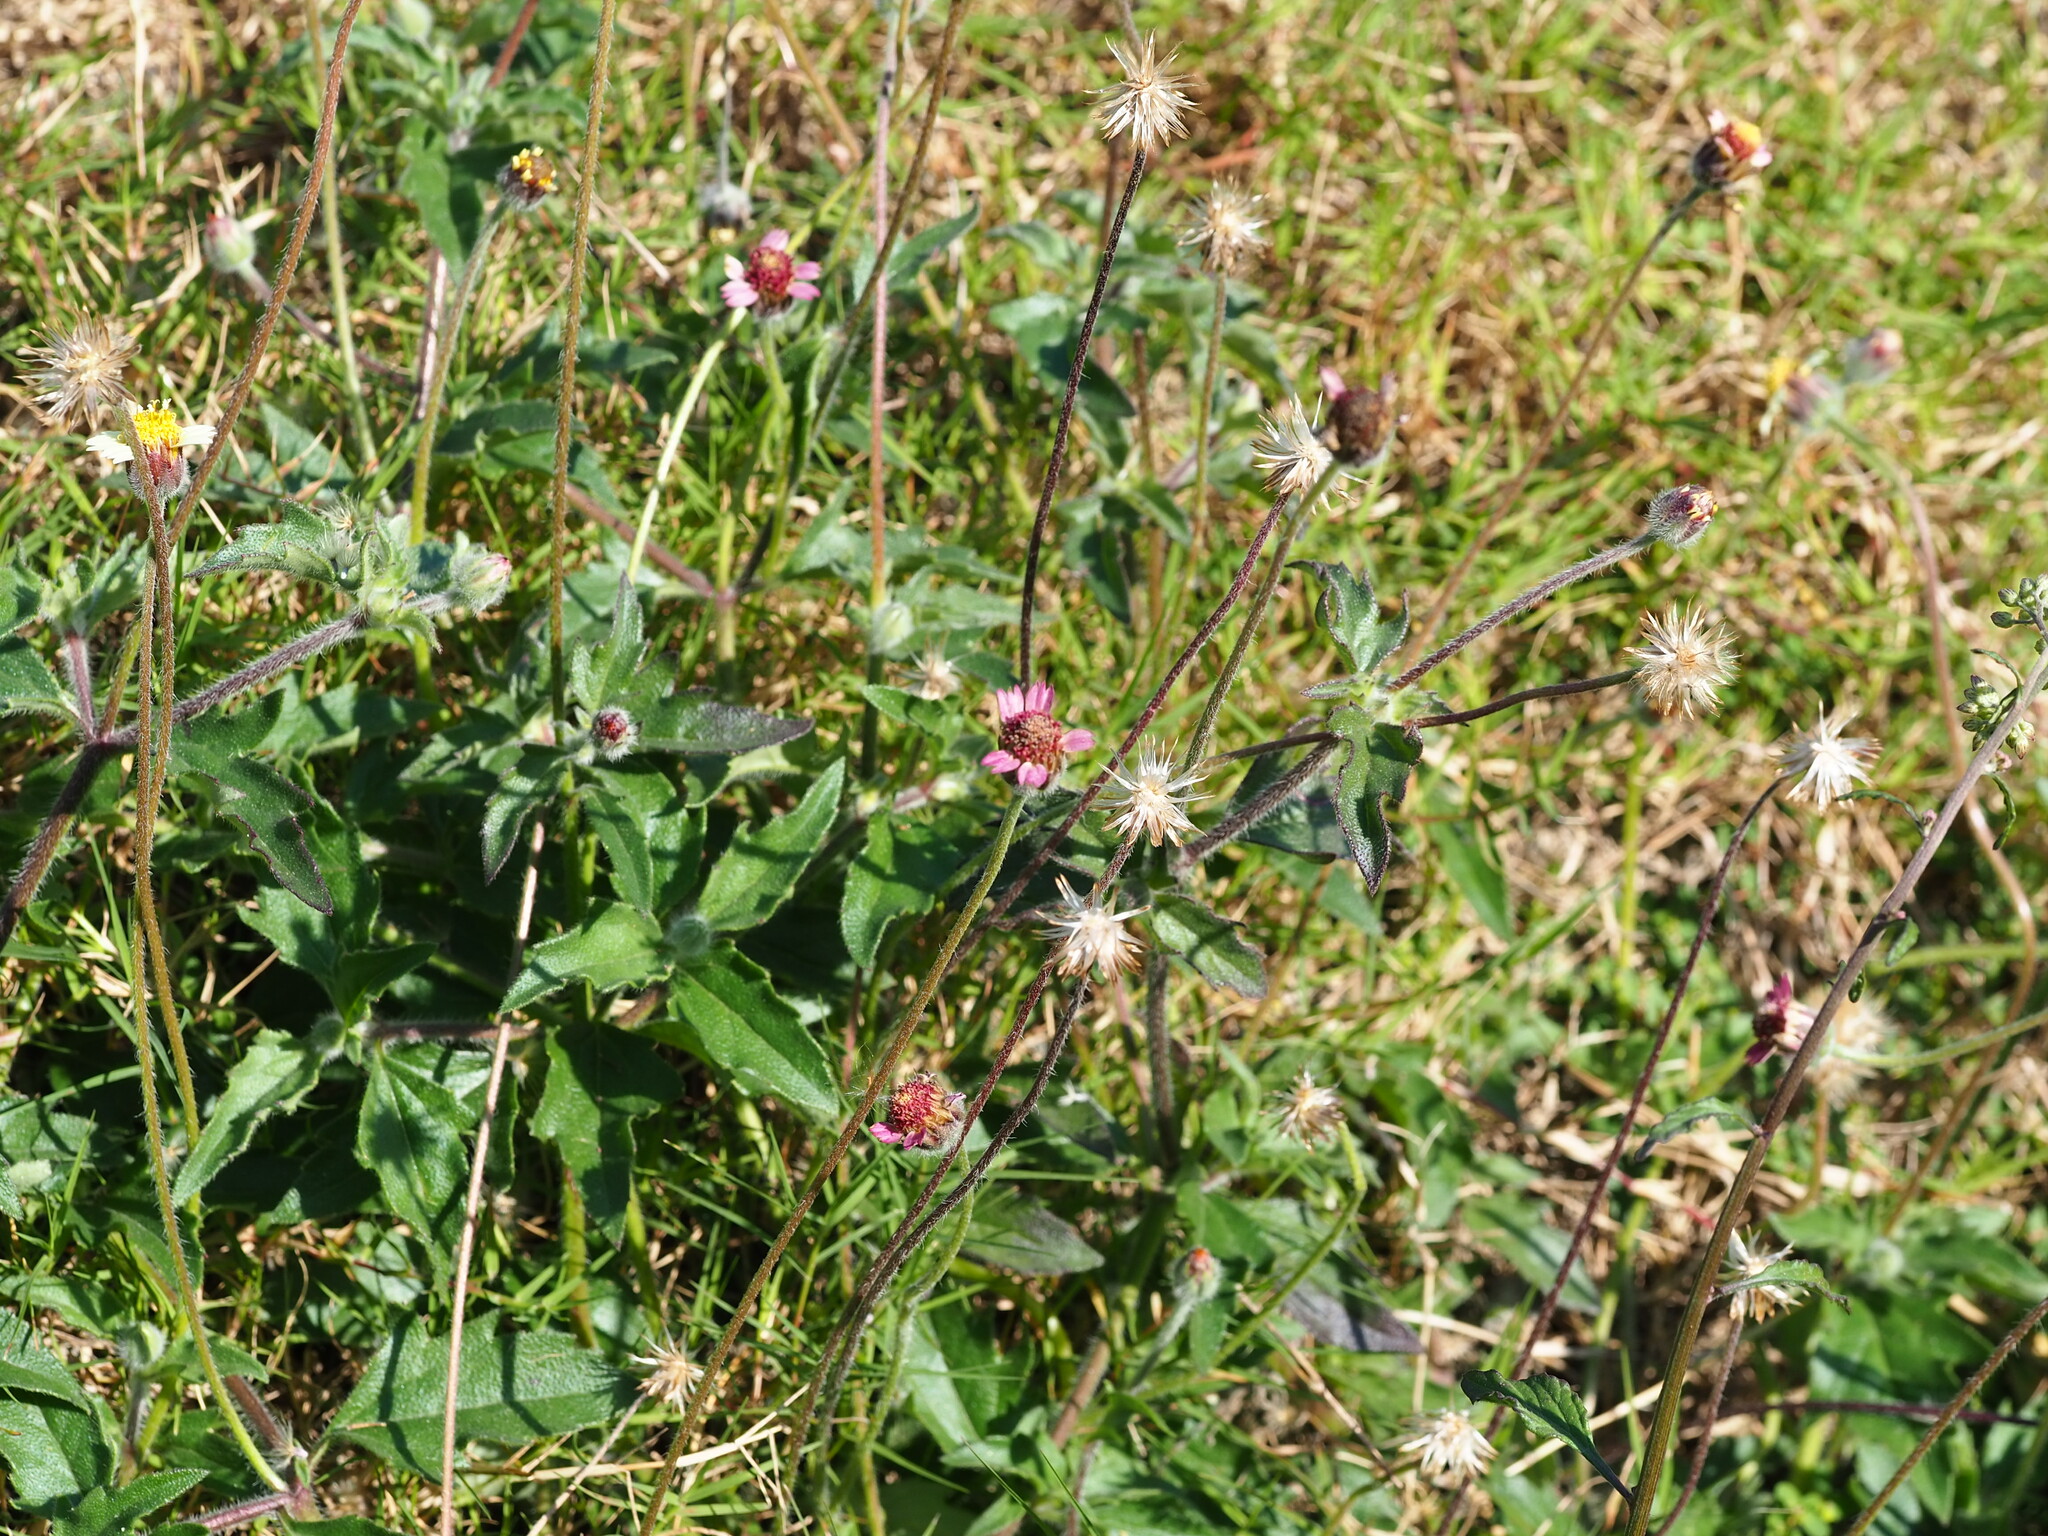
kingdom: Plantae
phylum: Tracheophyta
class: Magnoliopsida
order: Asterales
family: Asteraceae
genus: Tridax
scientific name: Tridax procumbens
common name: Coatbuttons
